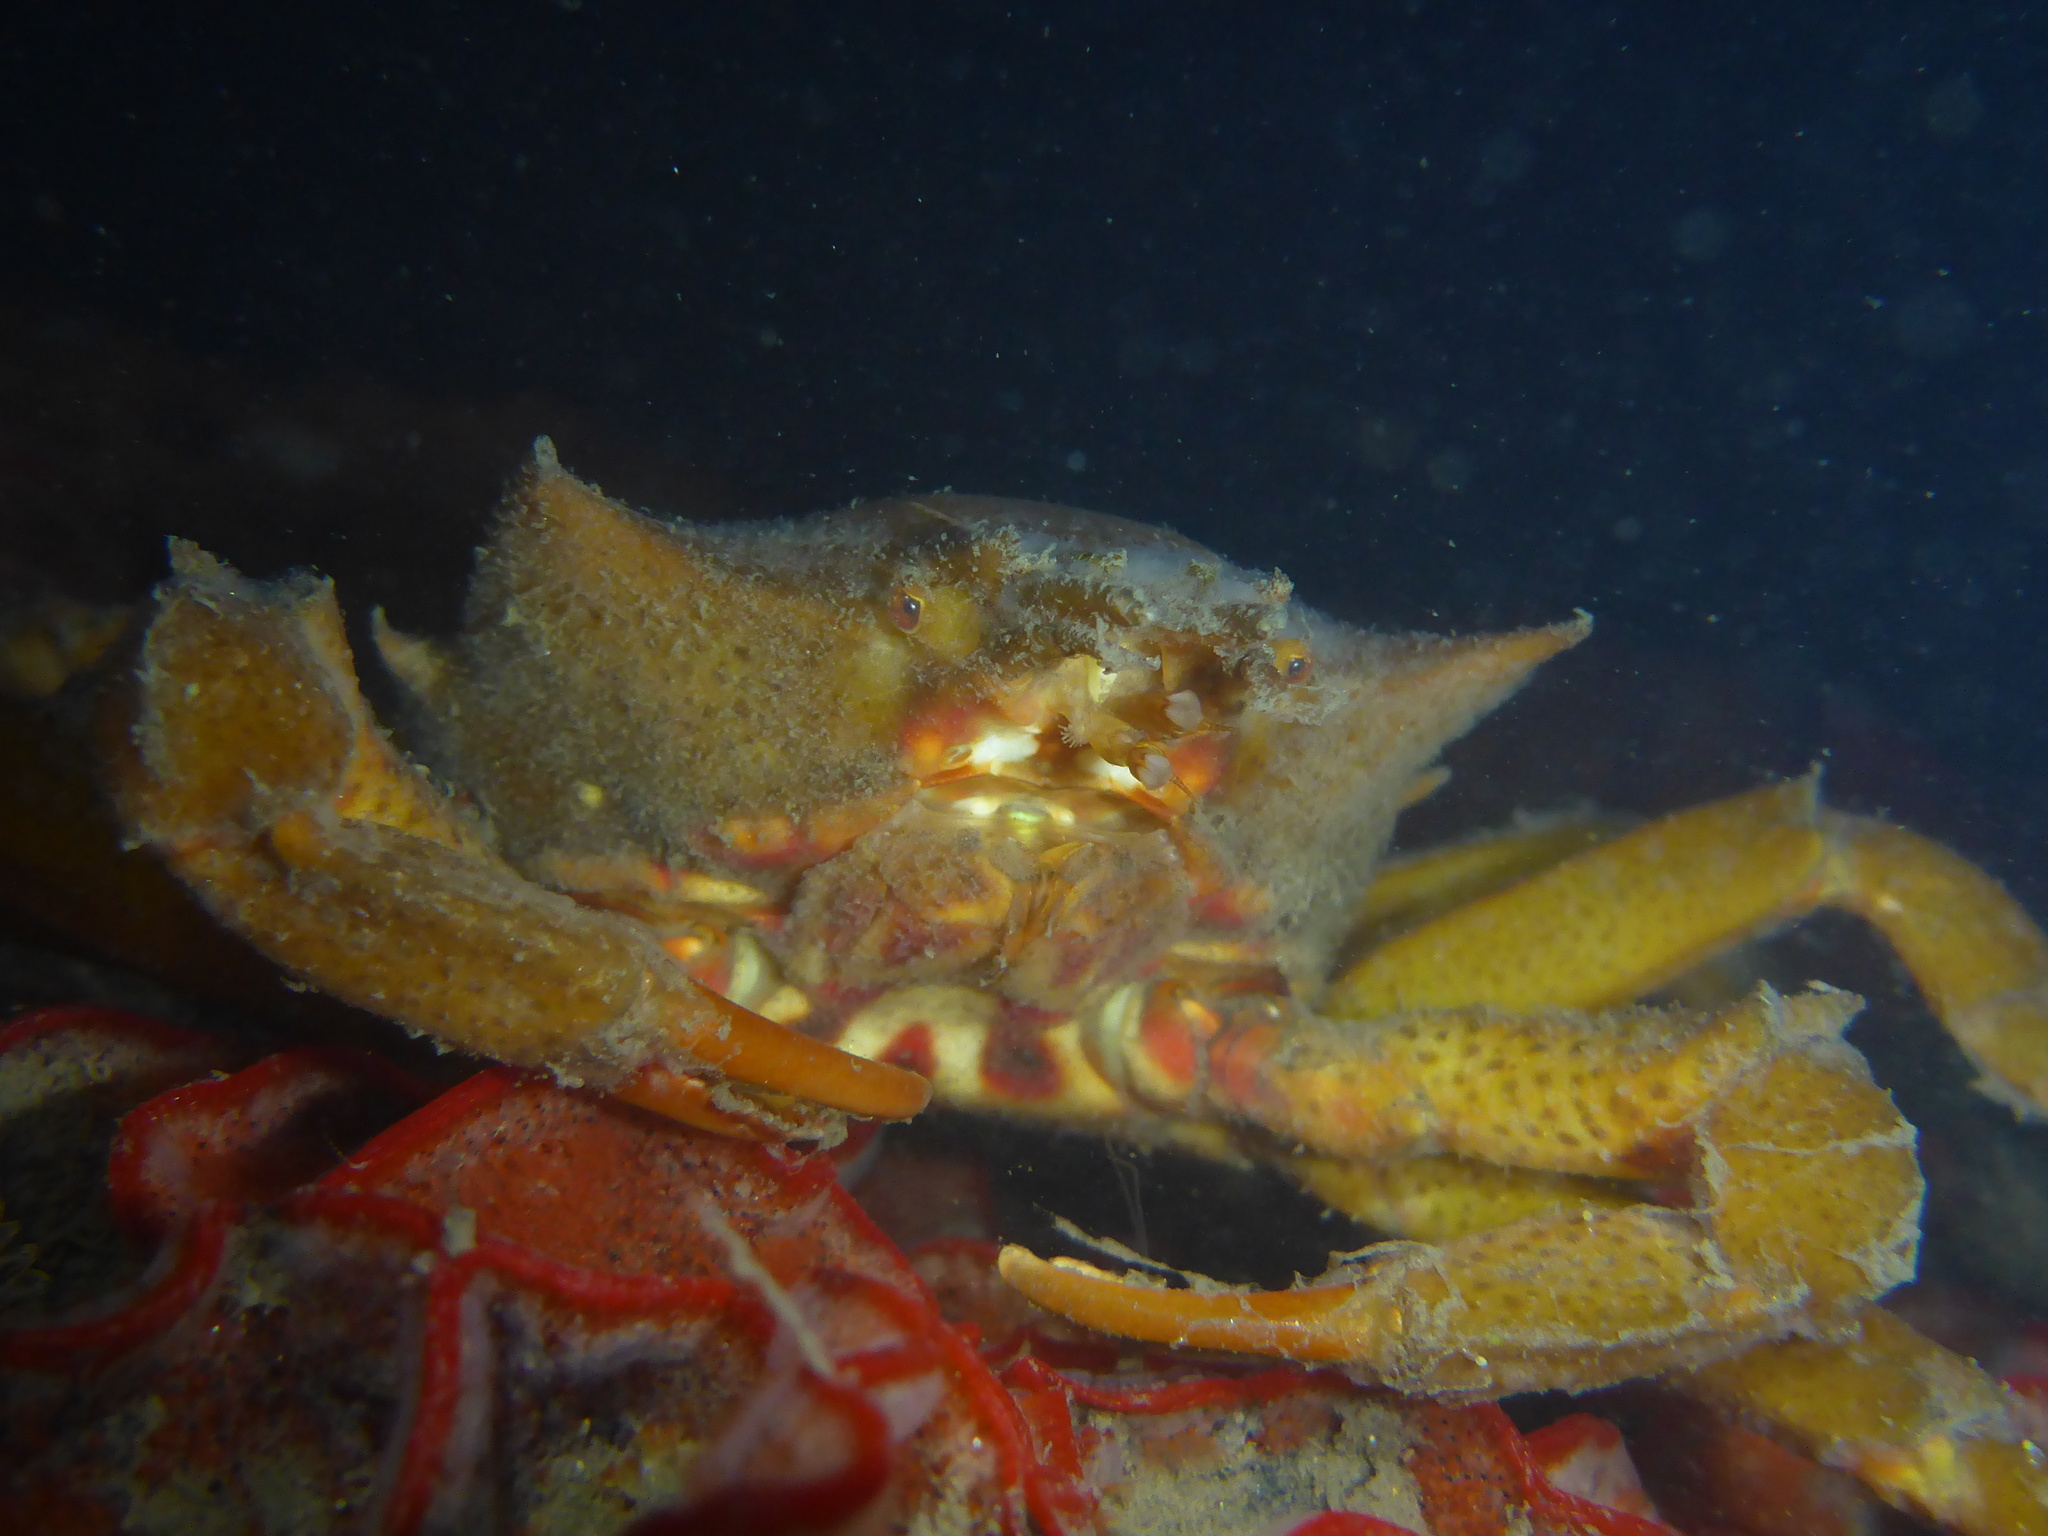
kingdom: Animalia
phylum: Arthropoda
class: Malacostraca
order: Decapoda
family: Epialtidae
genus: Pugettia
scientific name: Pugettia producta
